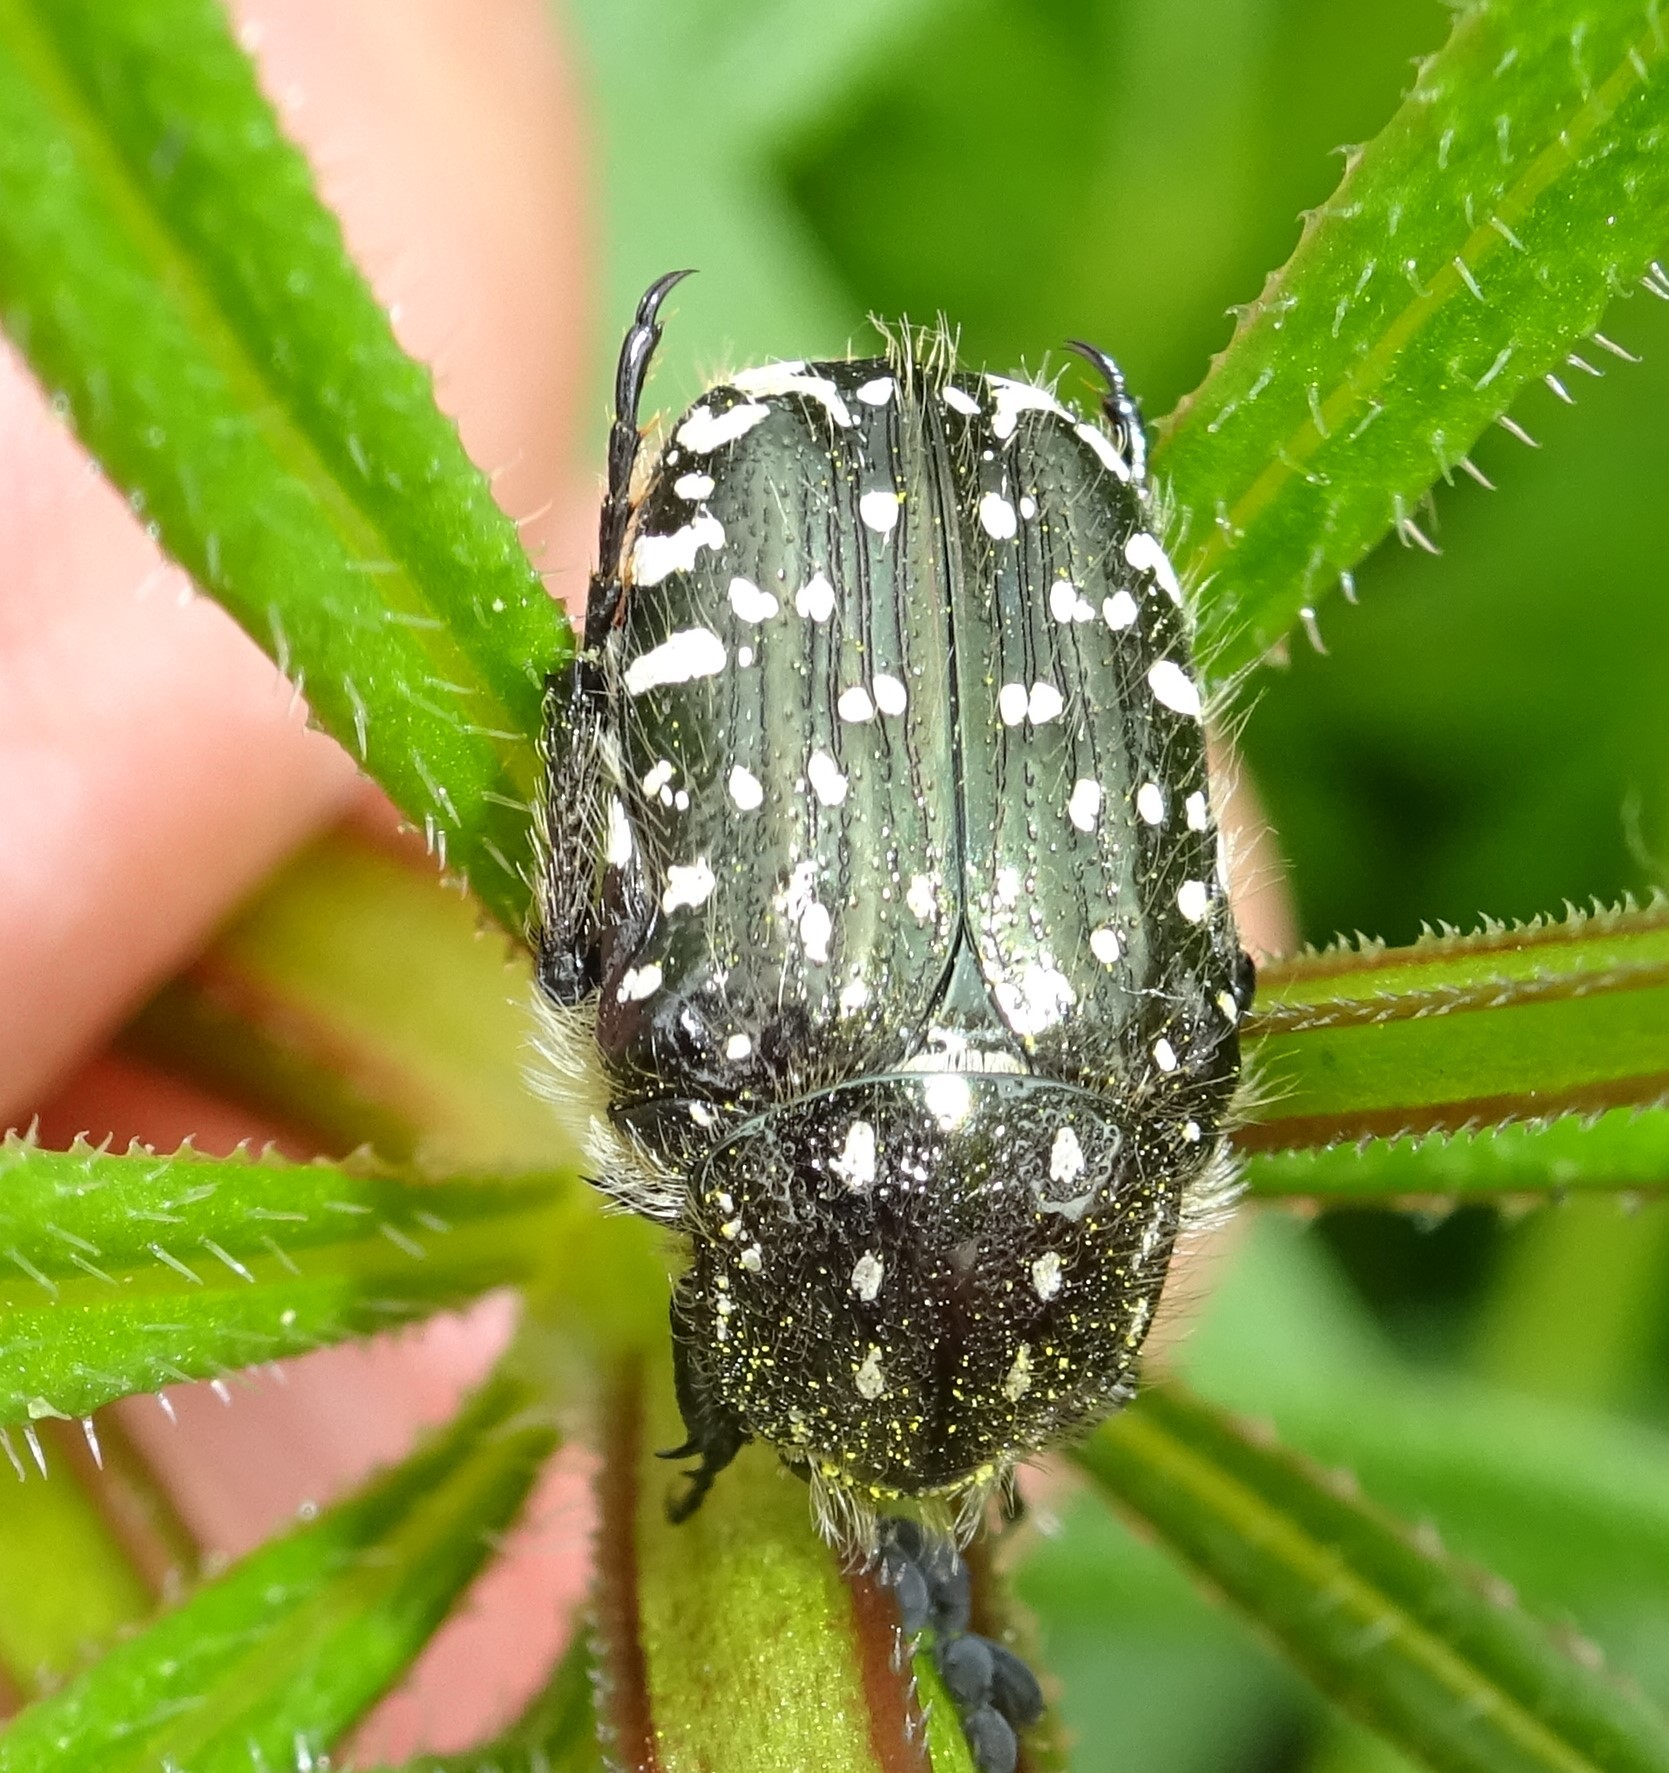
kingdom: Animalia
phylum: Arthropoda
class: Insecta
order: Coleoptera
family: Scarabaeidae
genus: Oxythyrea
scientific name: Oxythyrea funesta
